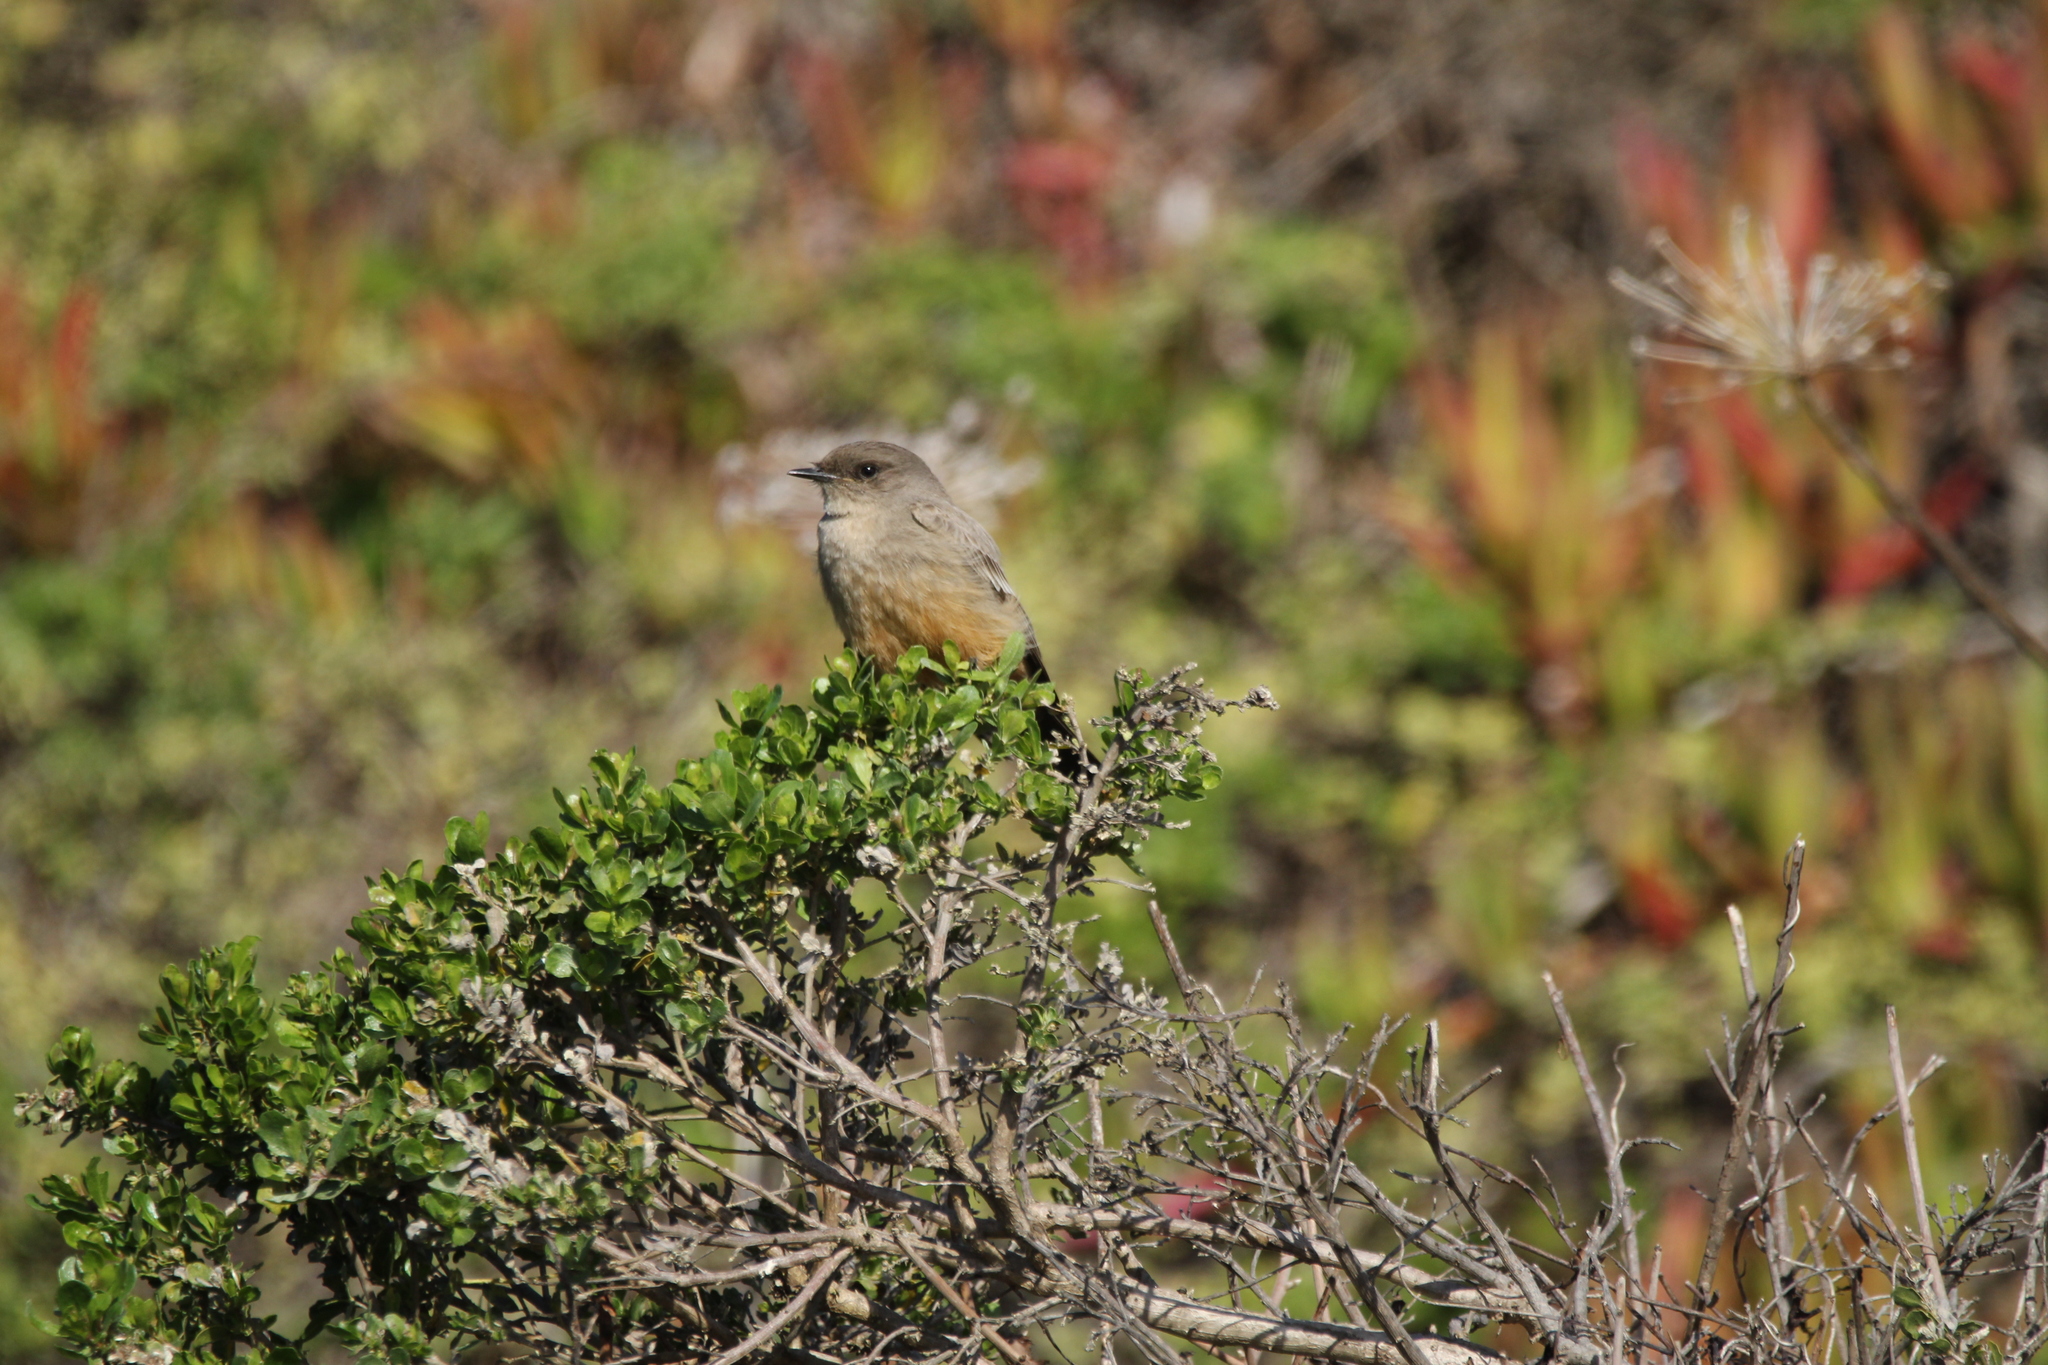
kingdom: Animalia
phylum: Chordata
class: Aves
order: Passeriformes
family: Tyrannidae
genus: Sayornis
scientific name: Sayornis saya
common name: Say's phoebe
